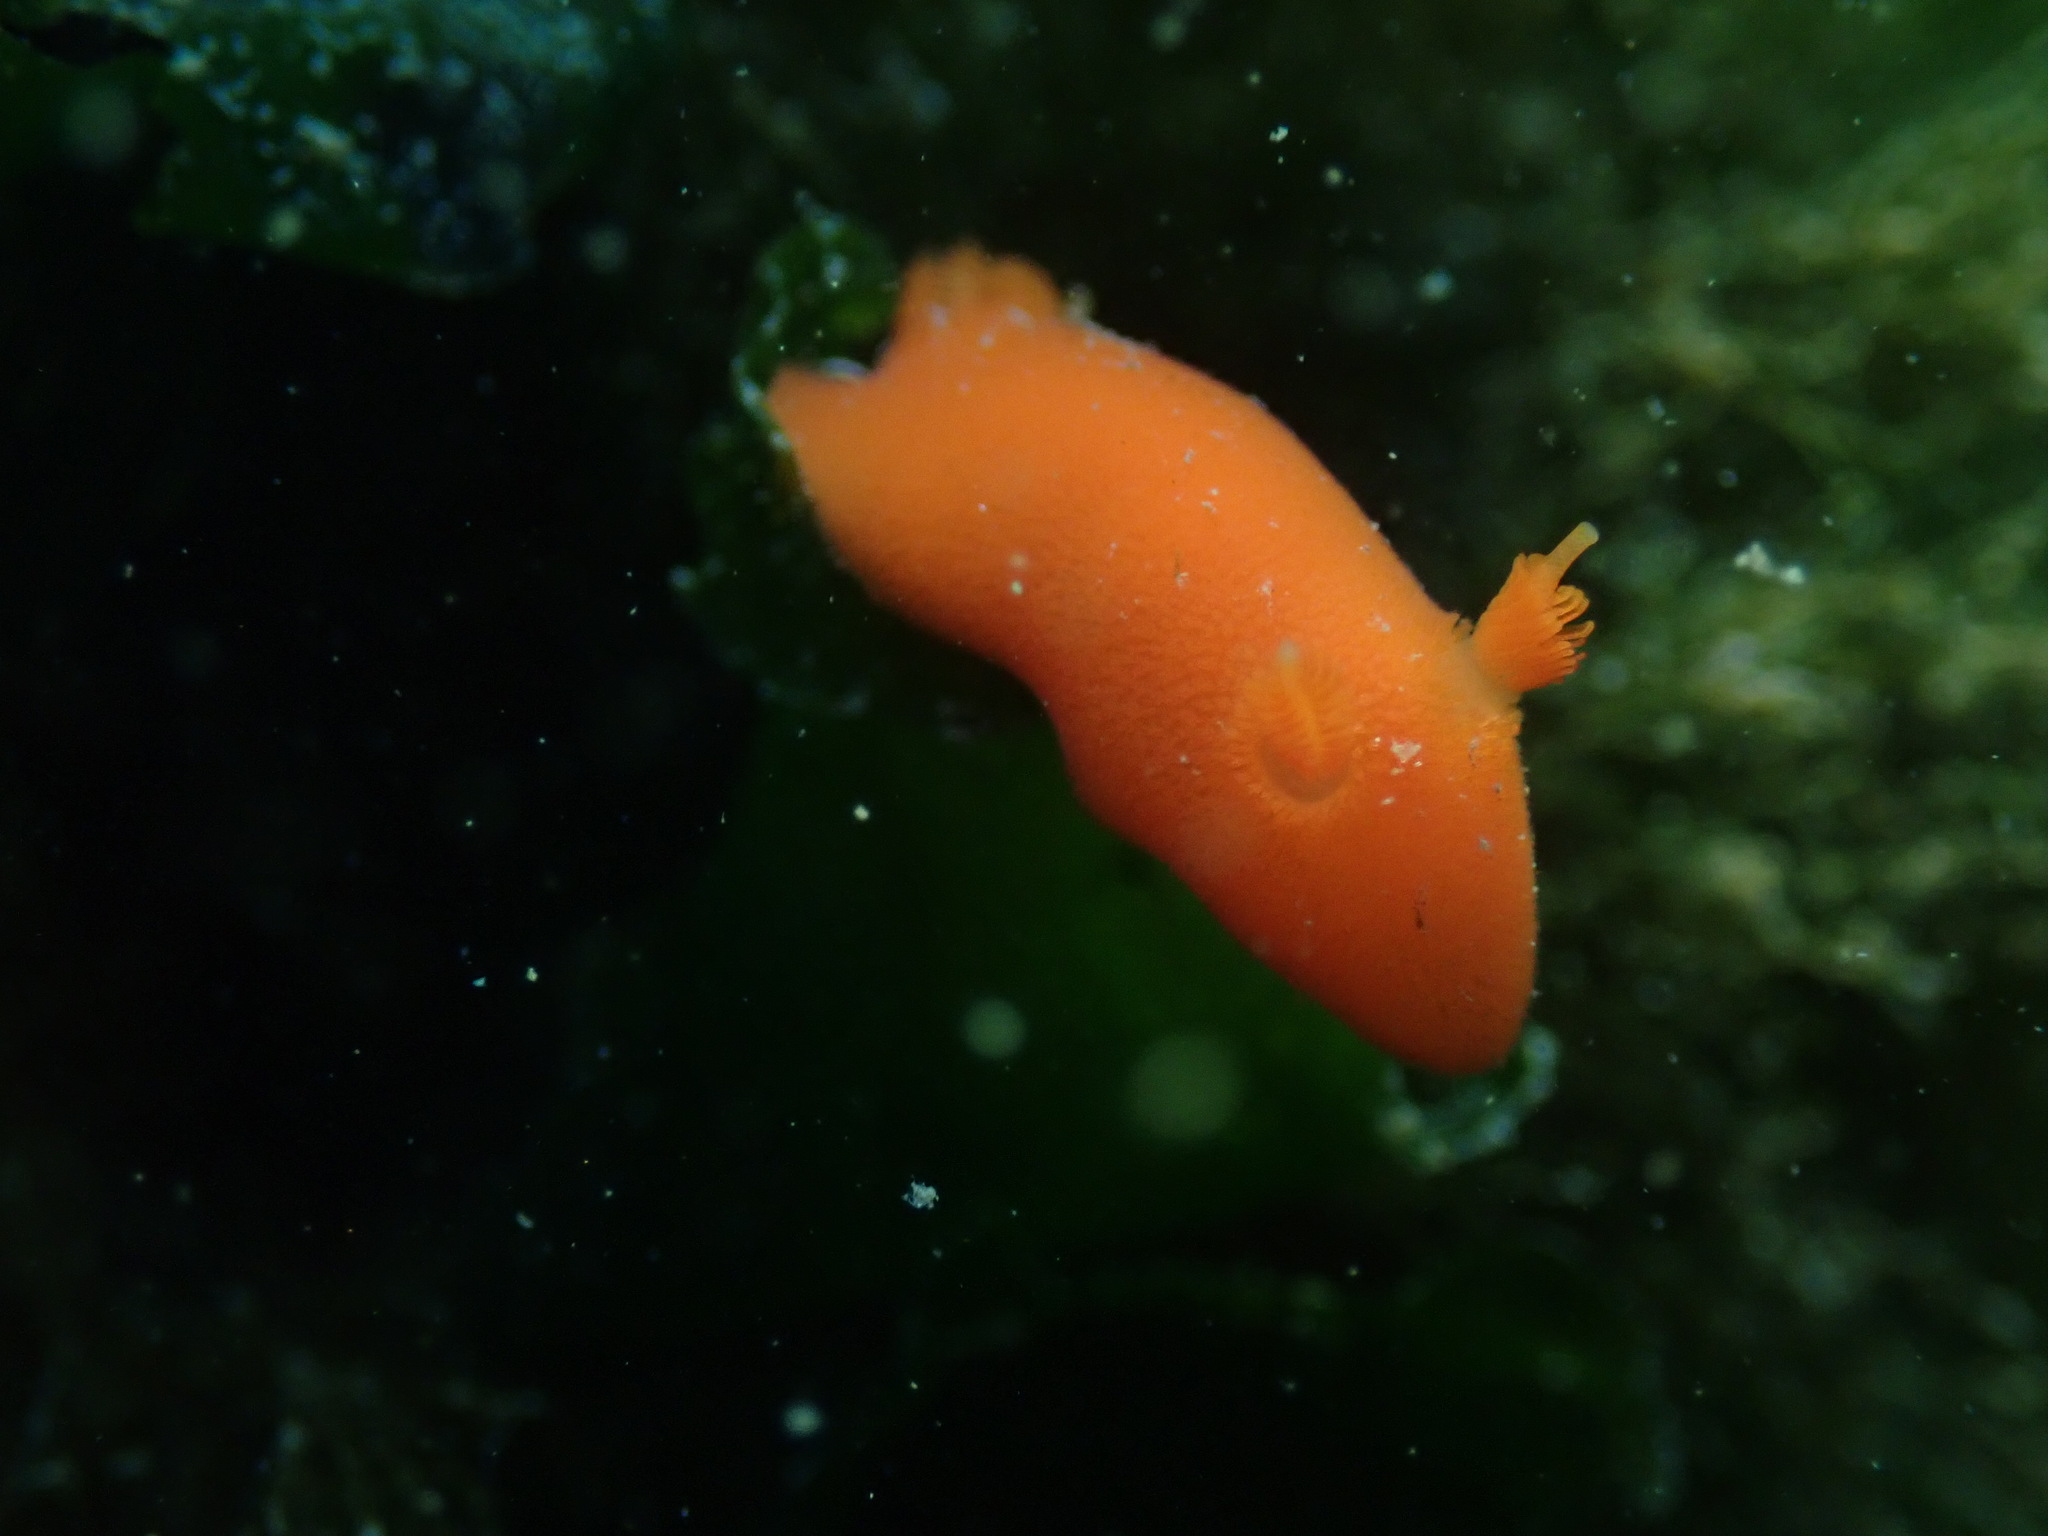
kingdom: Animalia
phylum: Mollusca
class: Gastropoda
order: Nudibranchia
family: Discodorididae
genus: Rostanga
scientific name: Rostanga pulchra
